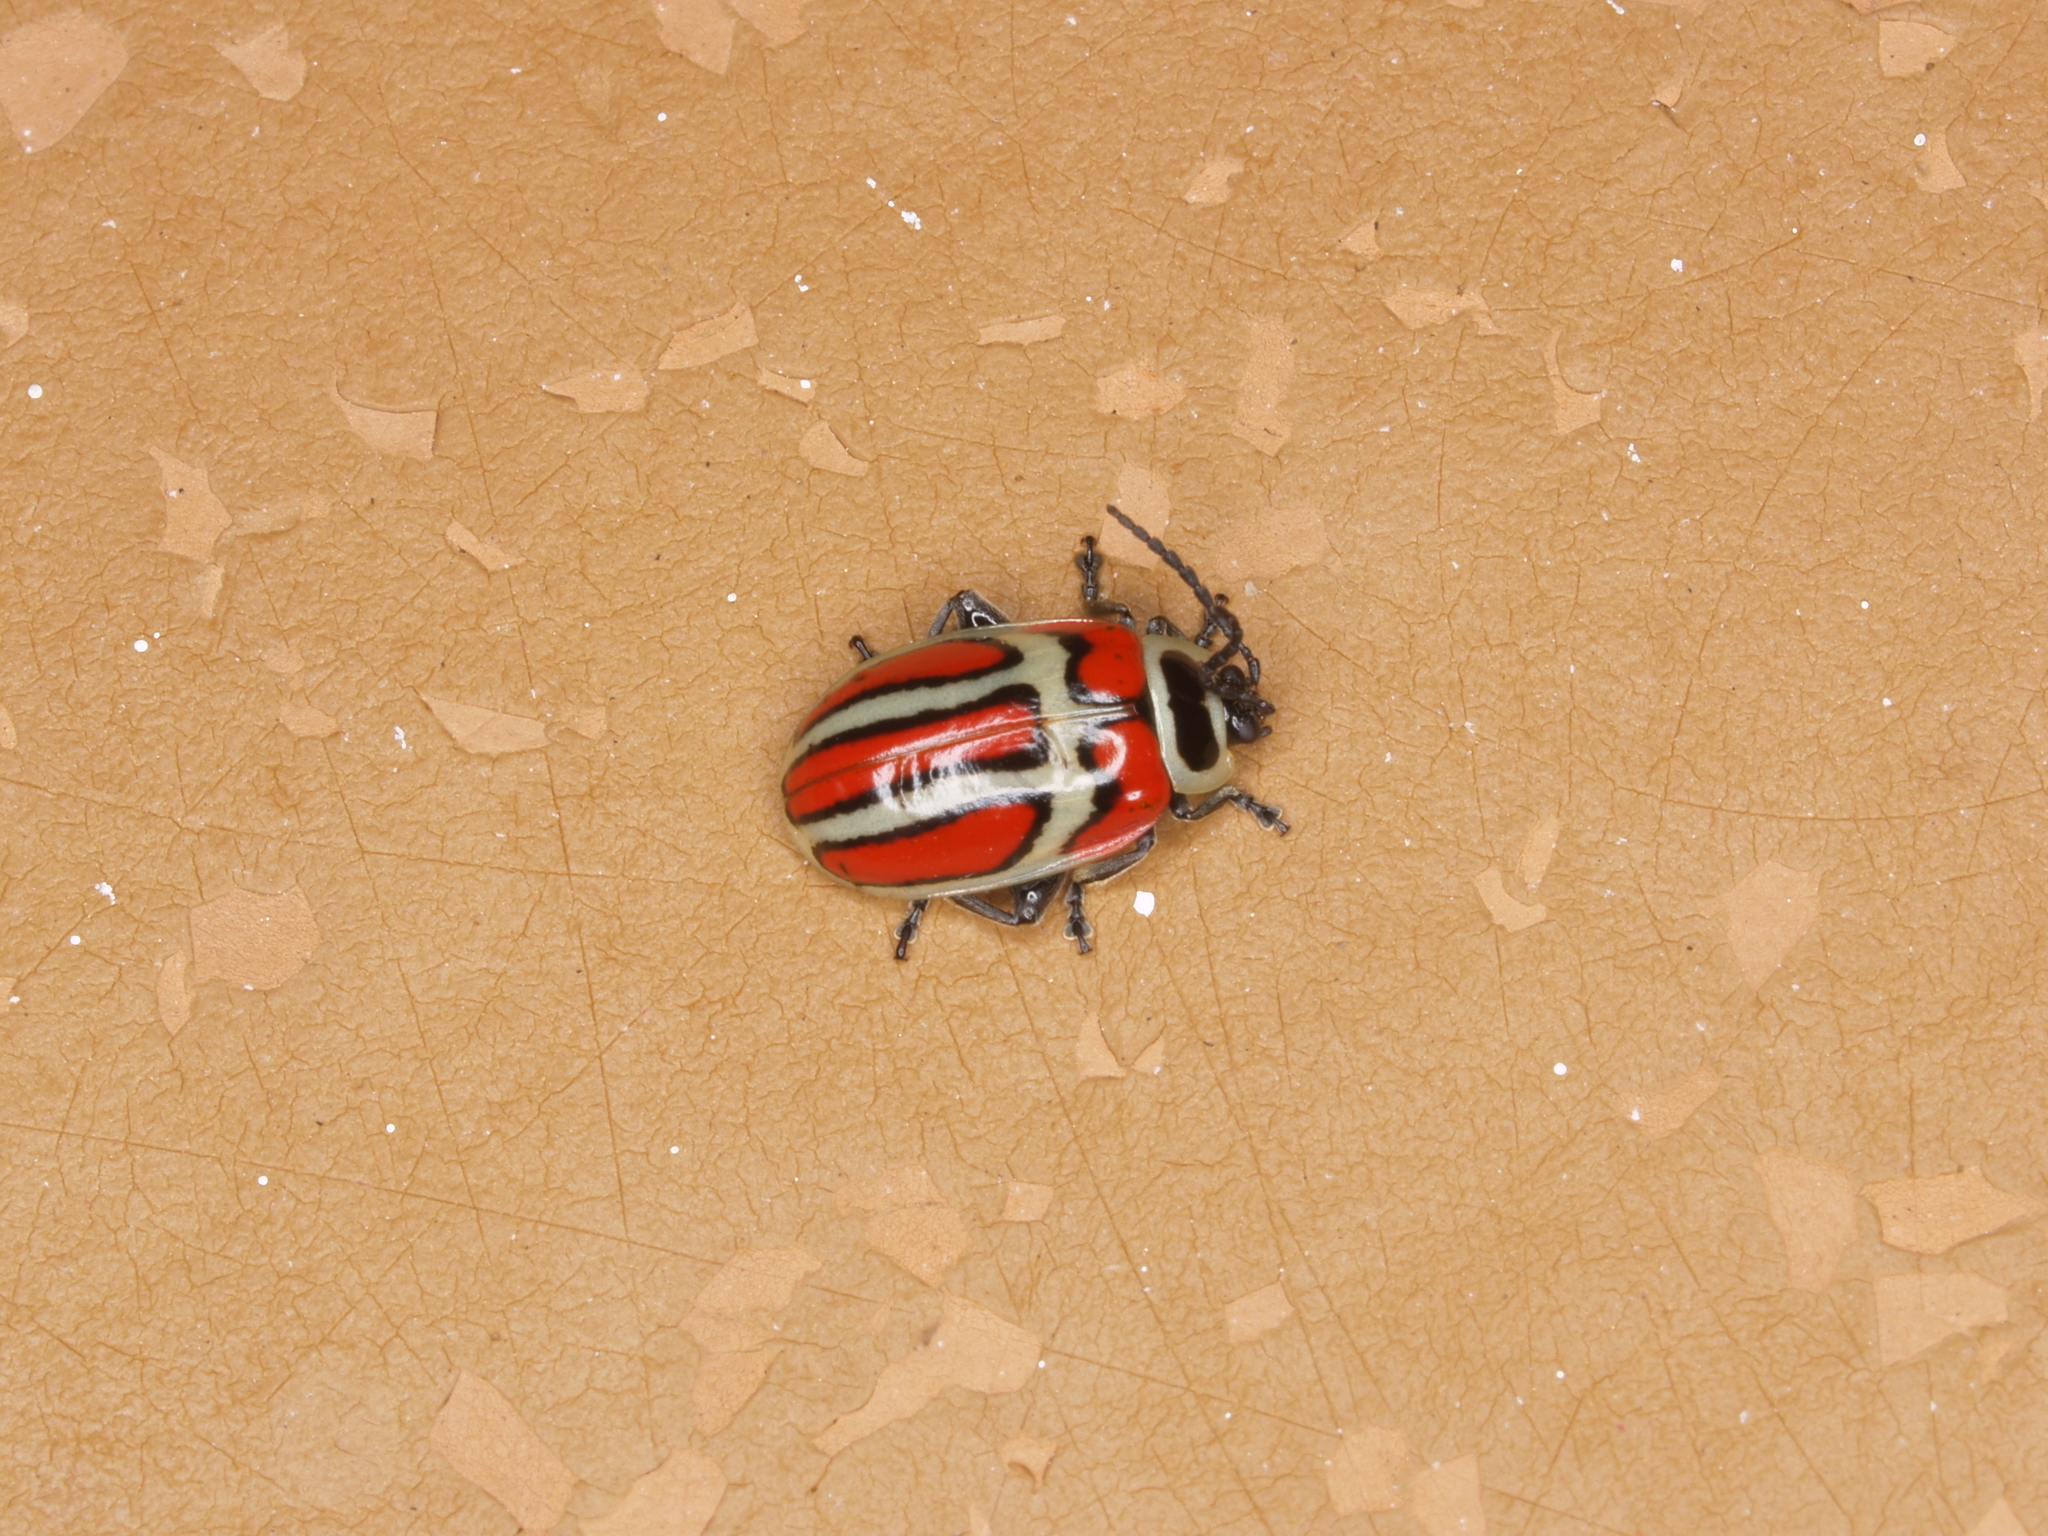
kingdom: Animalia
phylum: Arthropoda
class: Insecta
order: Coleoptera
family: Chrysomelidae
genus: Asphaera
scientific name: Asphaera
